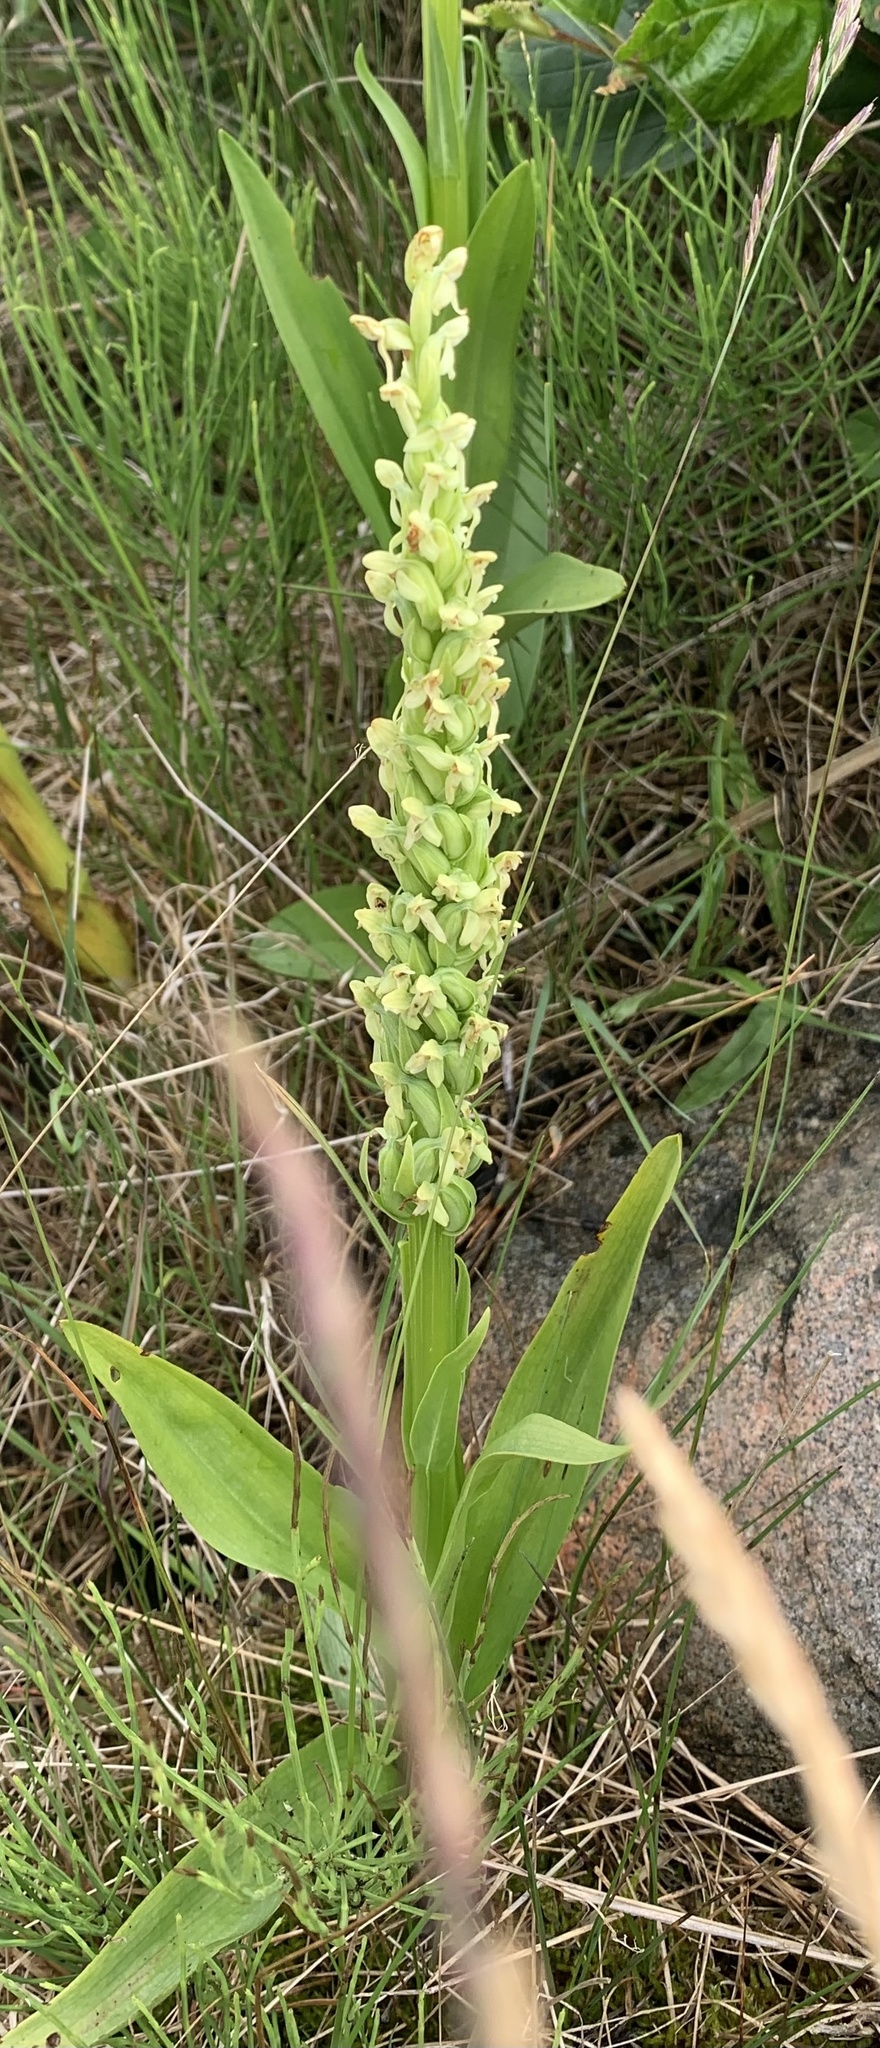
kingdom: Plantae
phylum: Tracheophyta
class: Liliopsida
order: Asparagales
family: Orchidaceae
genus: Platanthera
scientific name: Platanthera huronensis
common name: Fragrant green orchid
